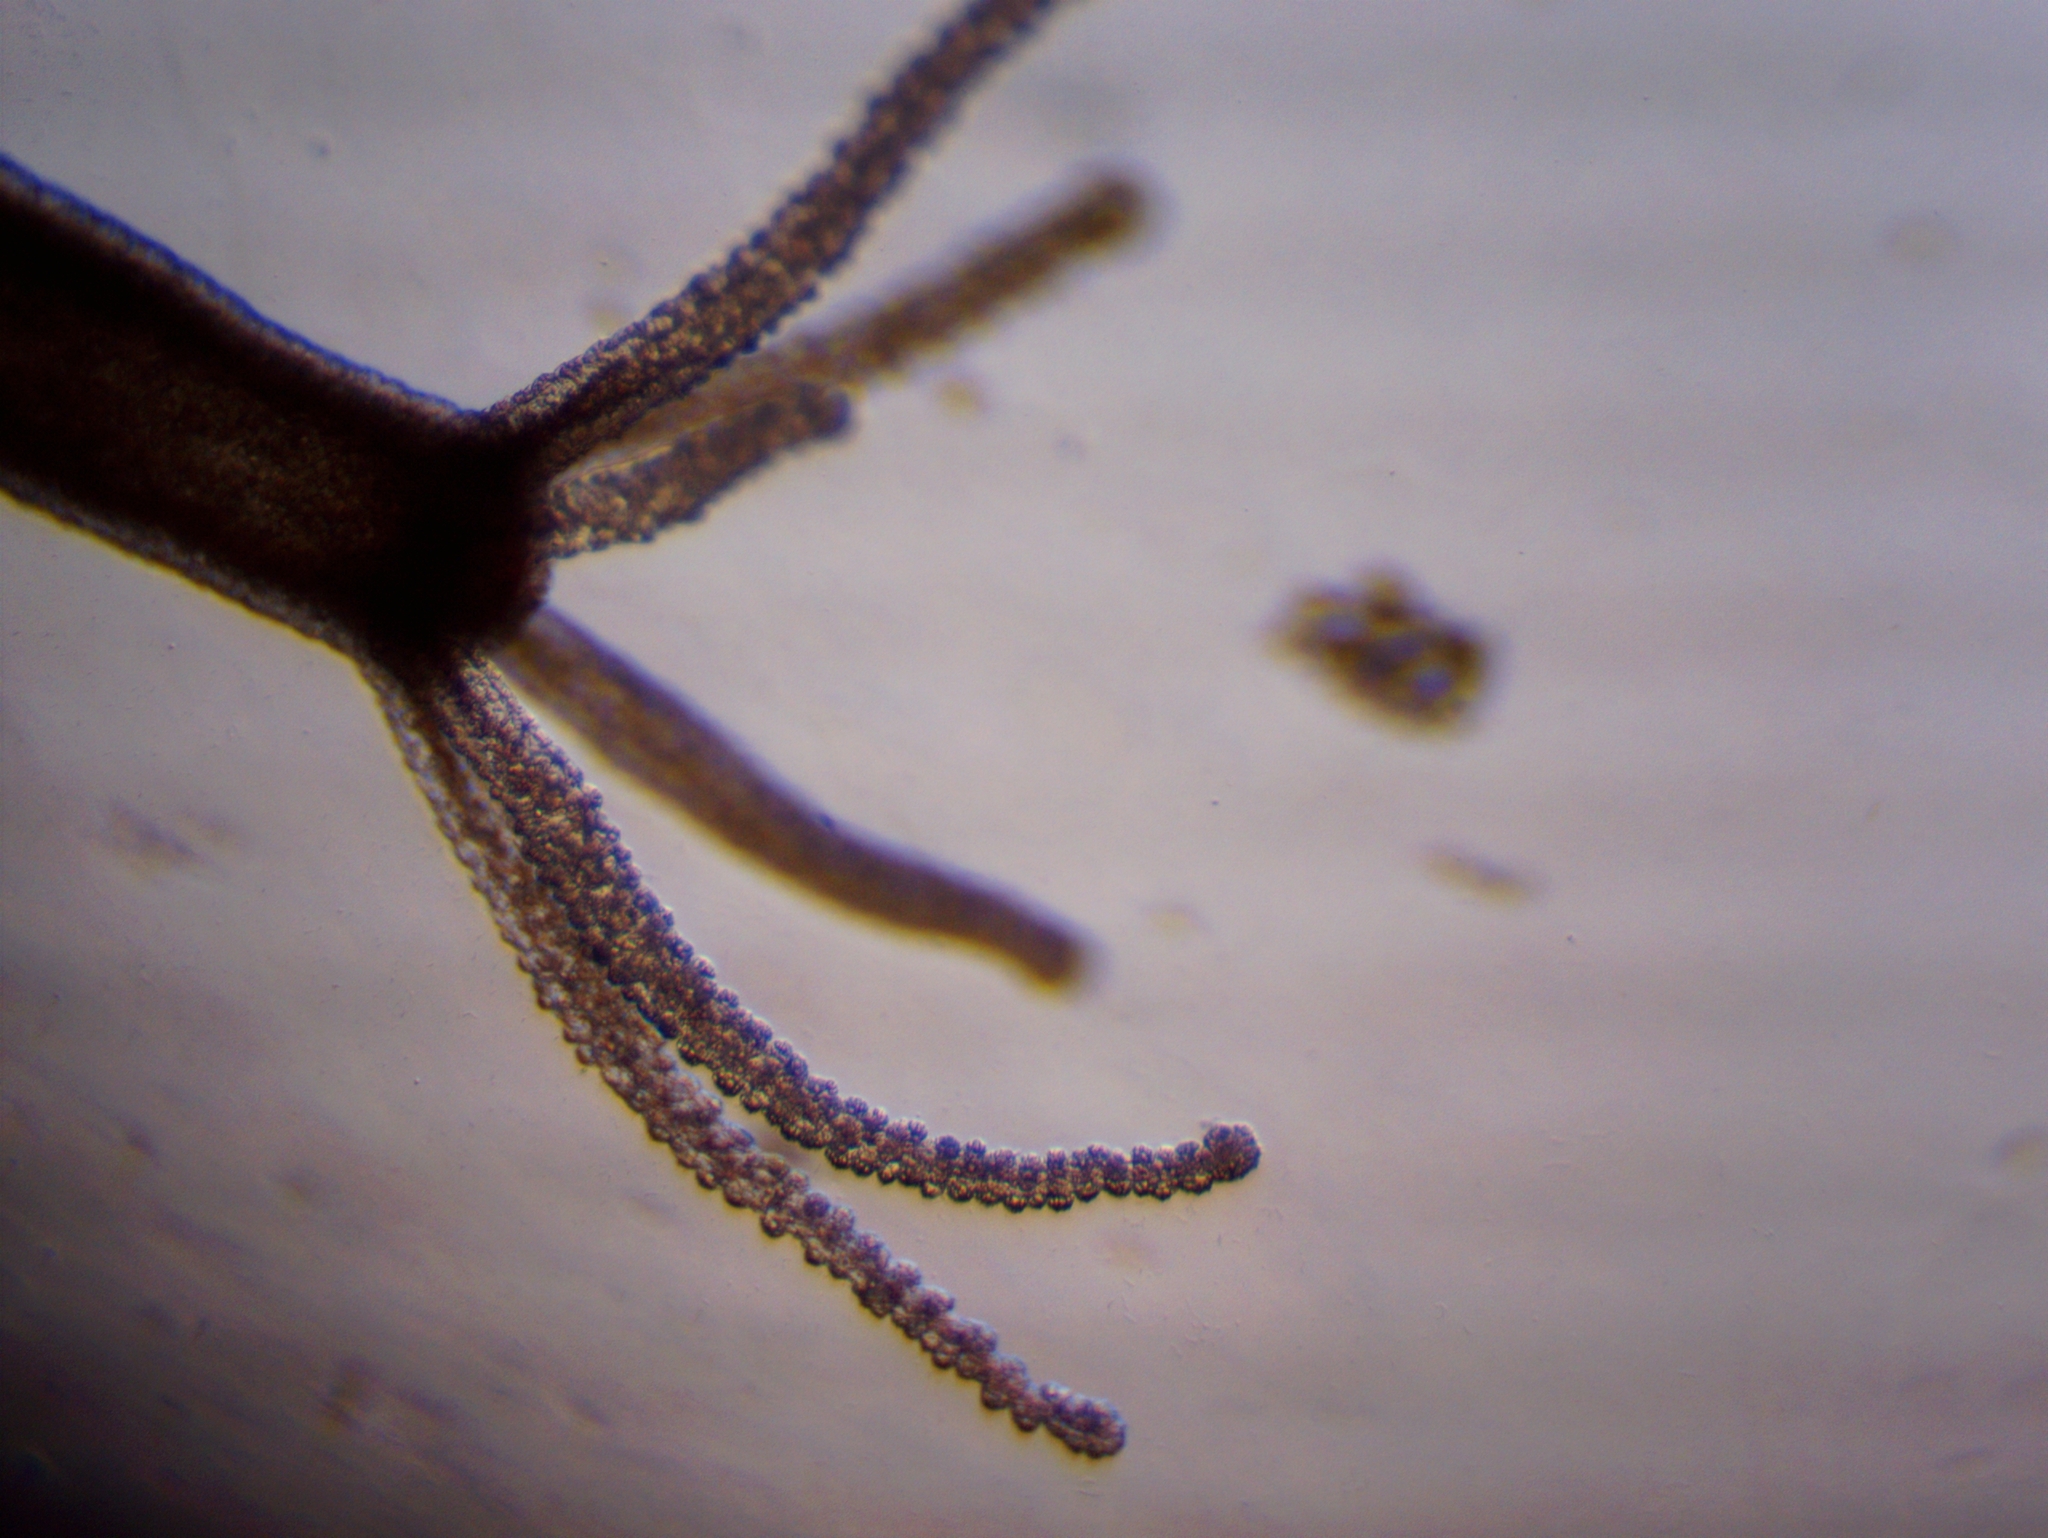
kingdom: Animalia
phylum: Cnidaria
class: Hydrozoa
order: Anthoathecata
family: Hydridae
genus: Hydra
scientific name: Hydra oligactis
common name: Brown hydra
